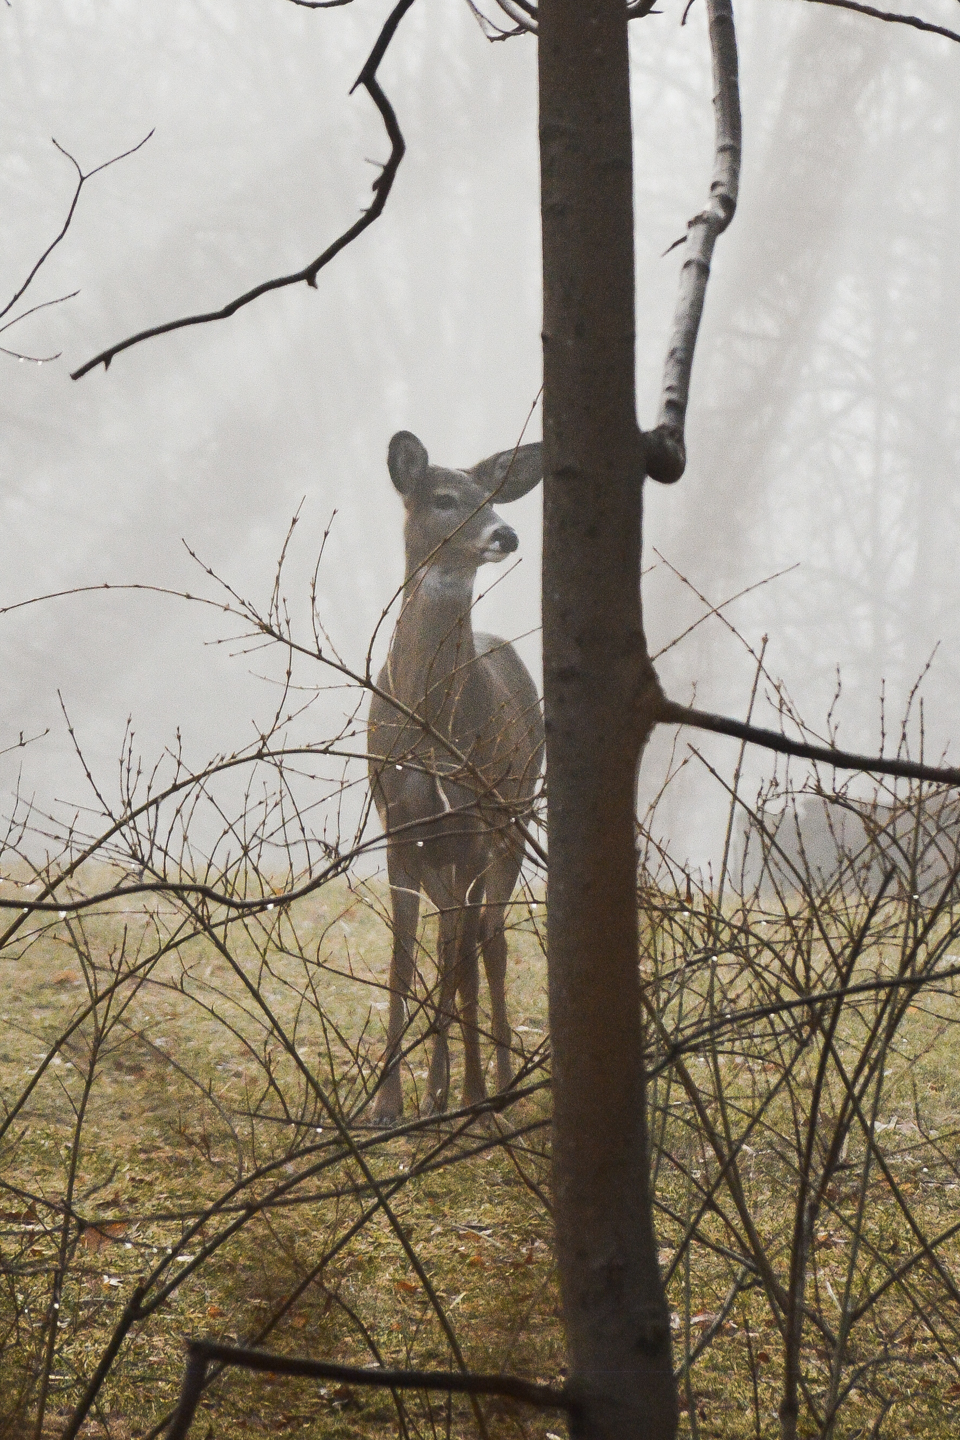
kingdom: Animalia
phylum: Chordata
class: Mammalia
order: Artiodactyla
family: Cervidae
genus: Odocoileus
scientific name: Odocoileus virginianus
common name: White-tailed deer
